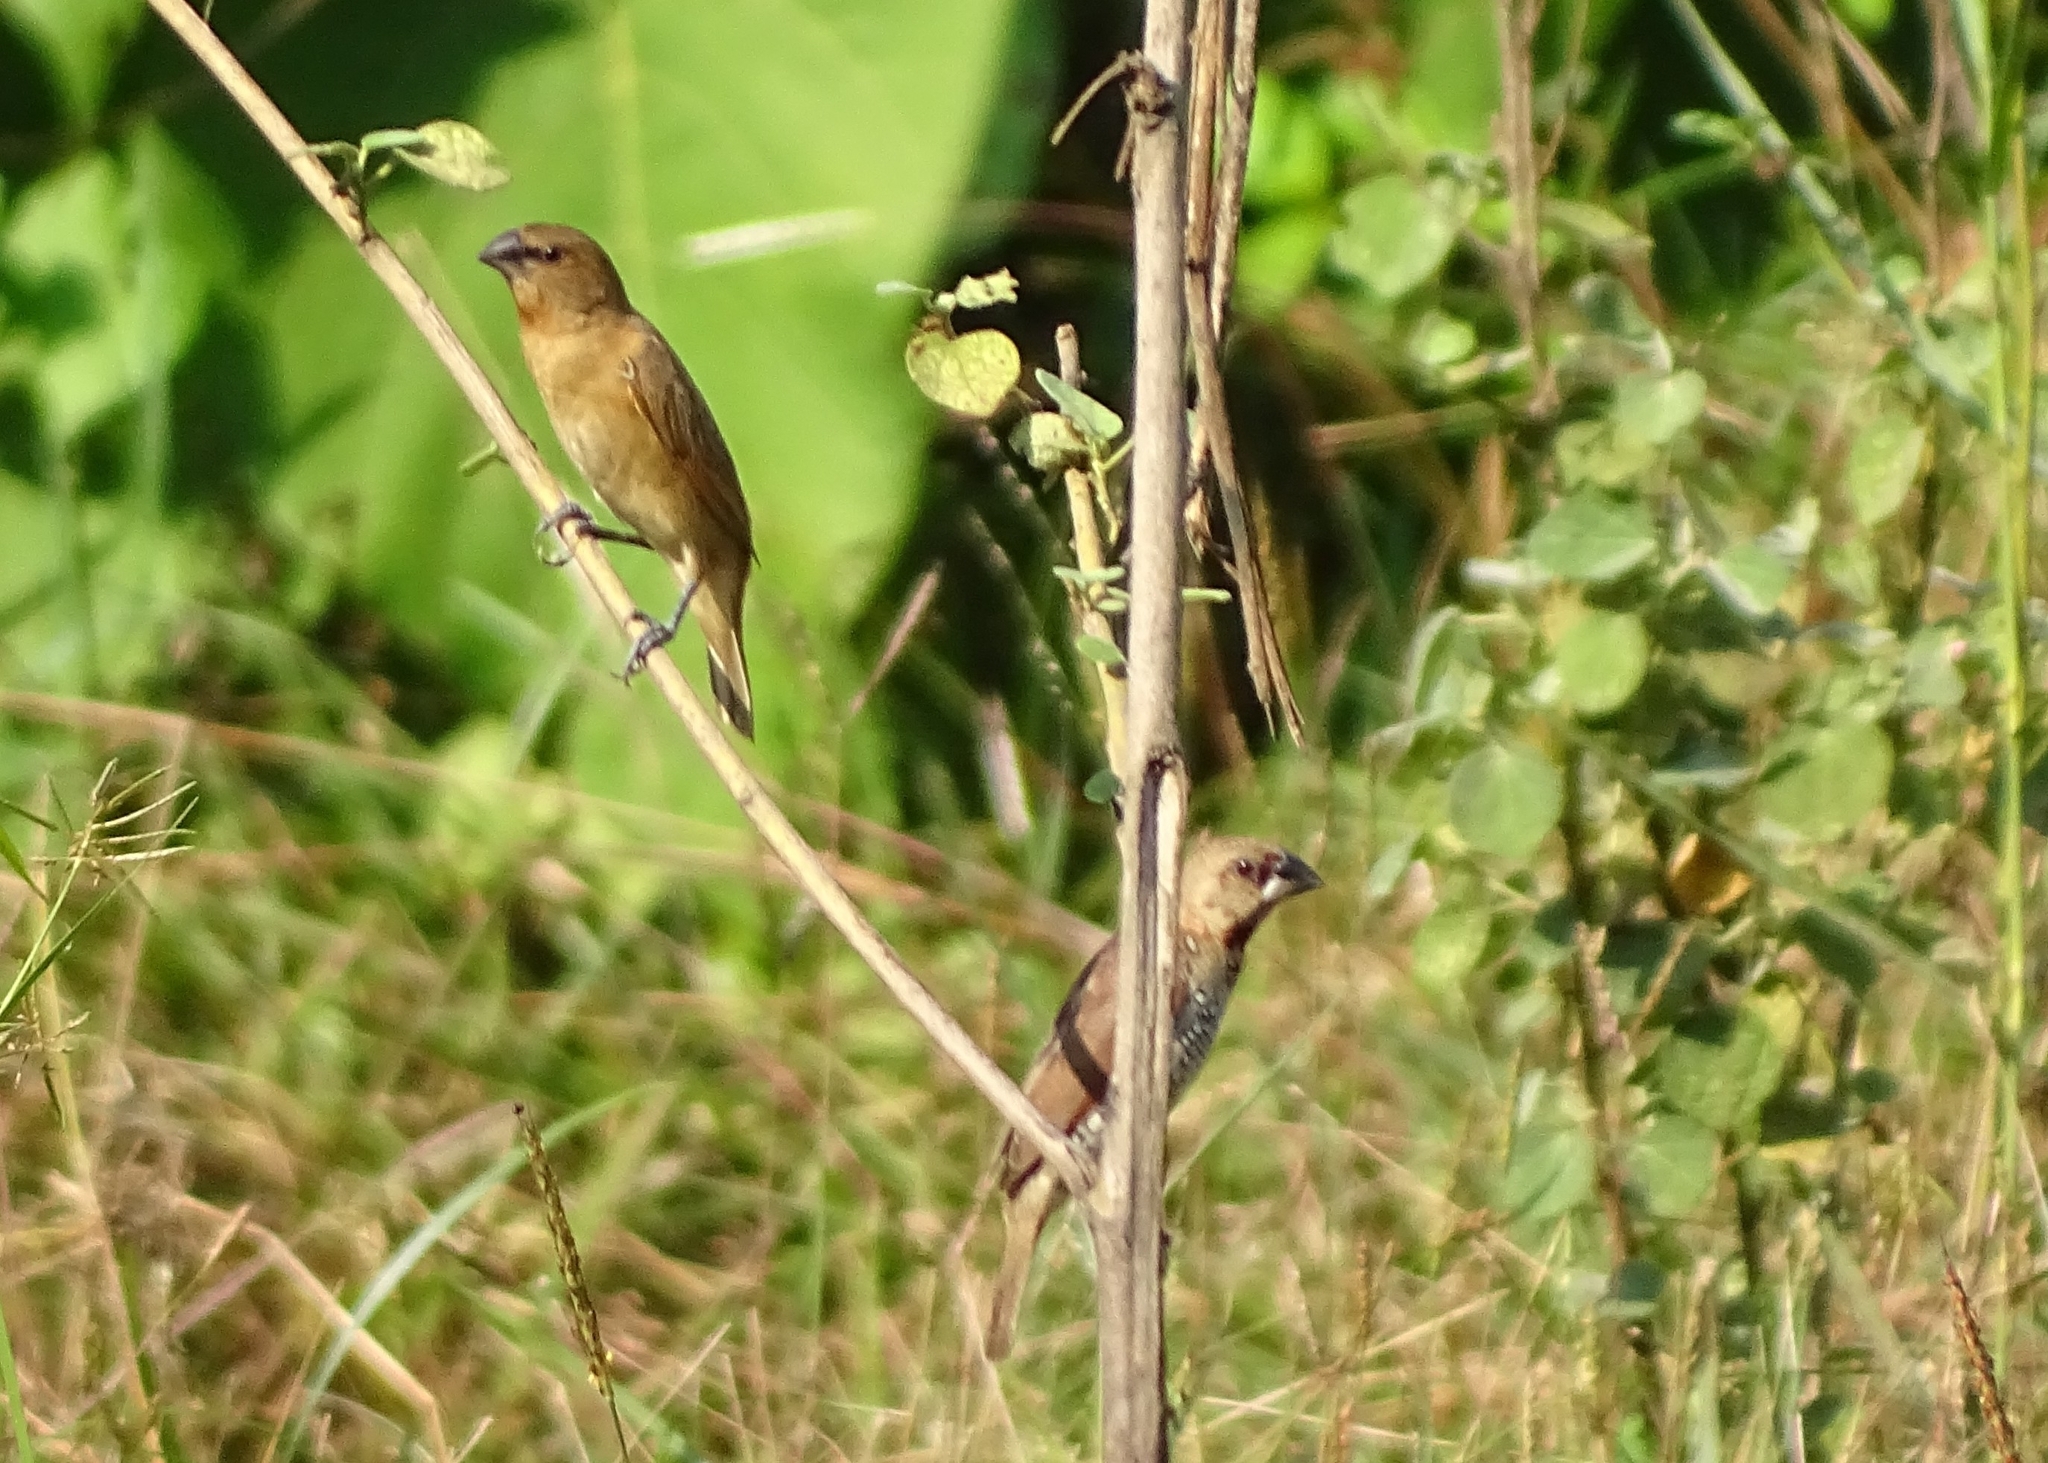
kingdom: Animalia
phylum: Chordata
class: Aves
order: Passeriformes
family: Estrildidae
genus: Lonchura
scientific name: Lonchura punctulata
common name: Scaly-breasted munia
